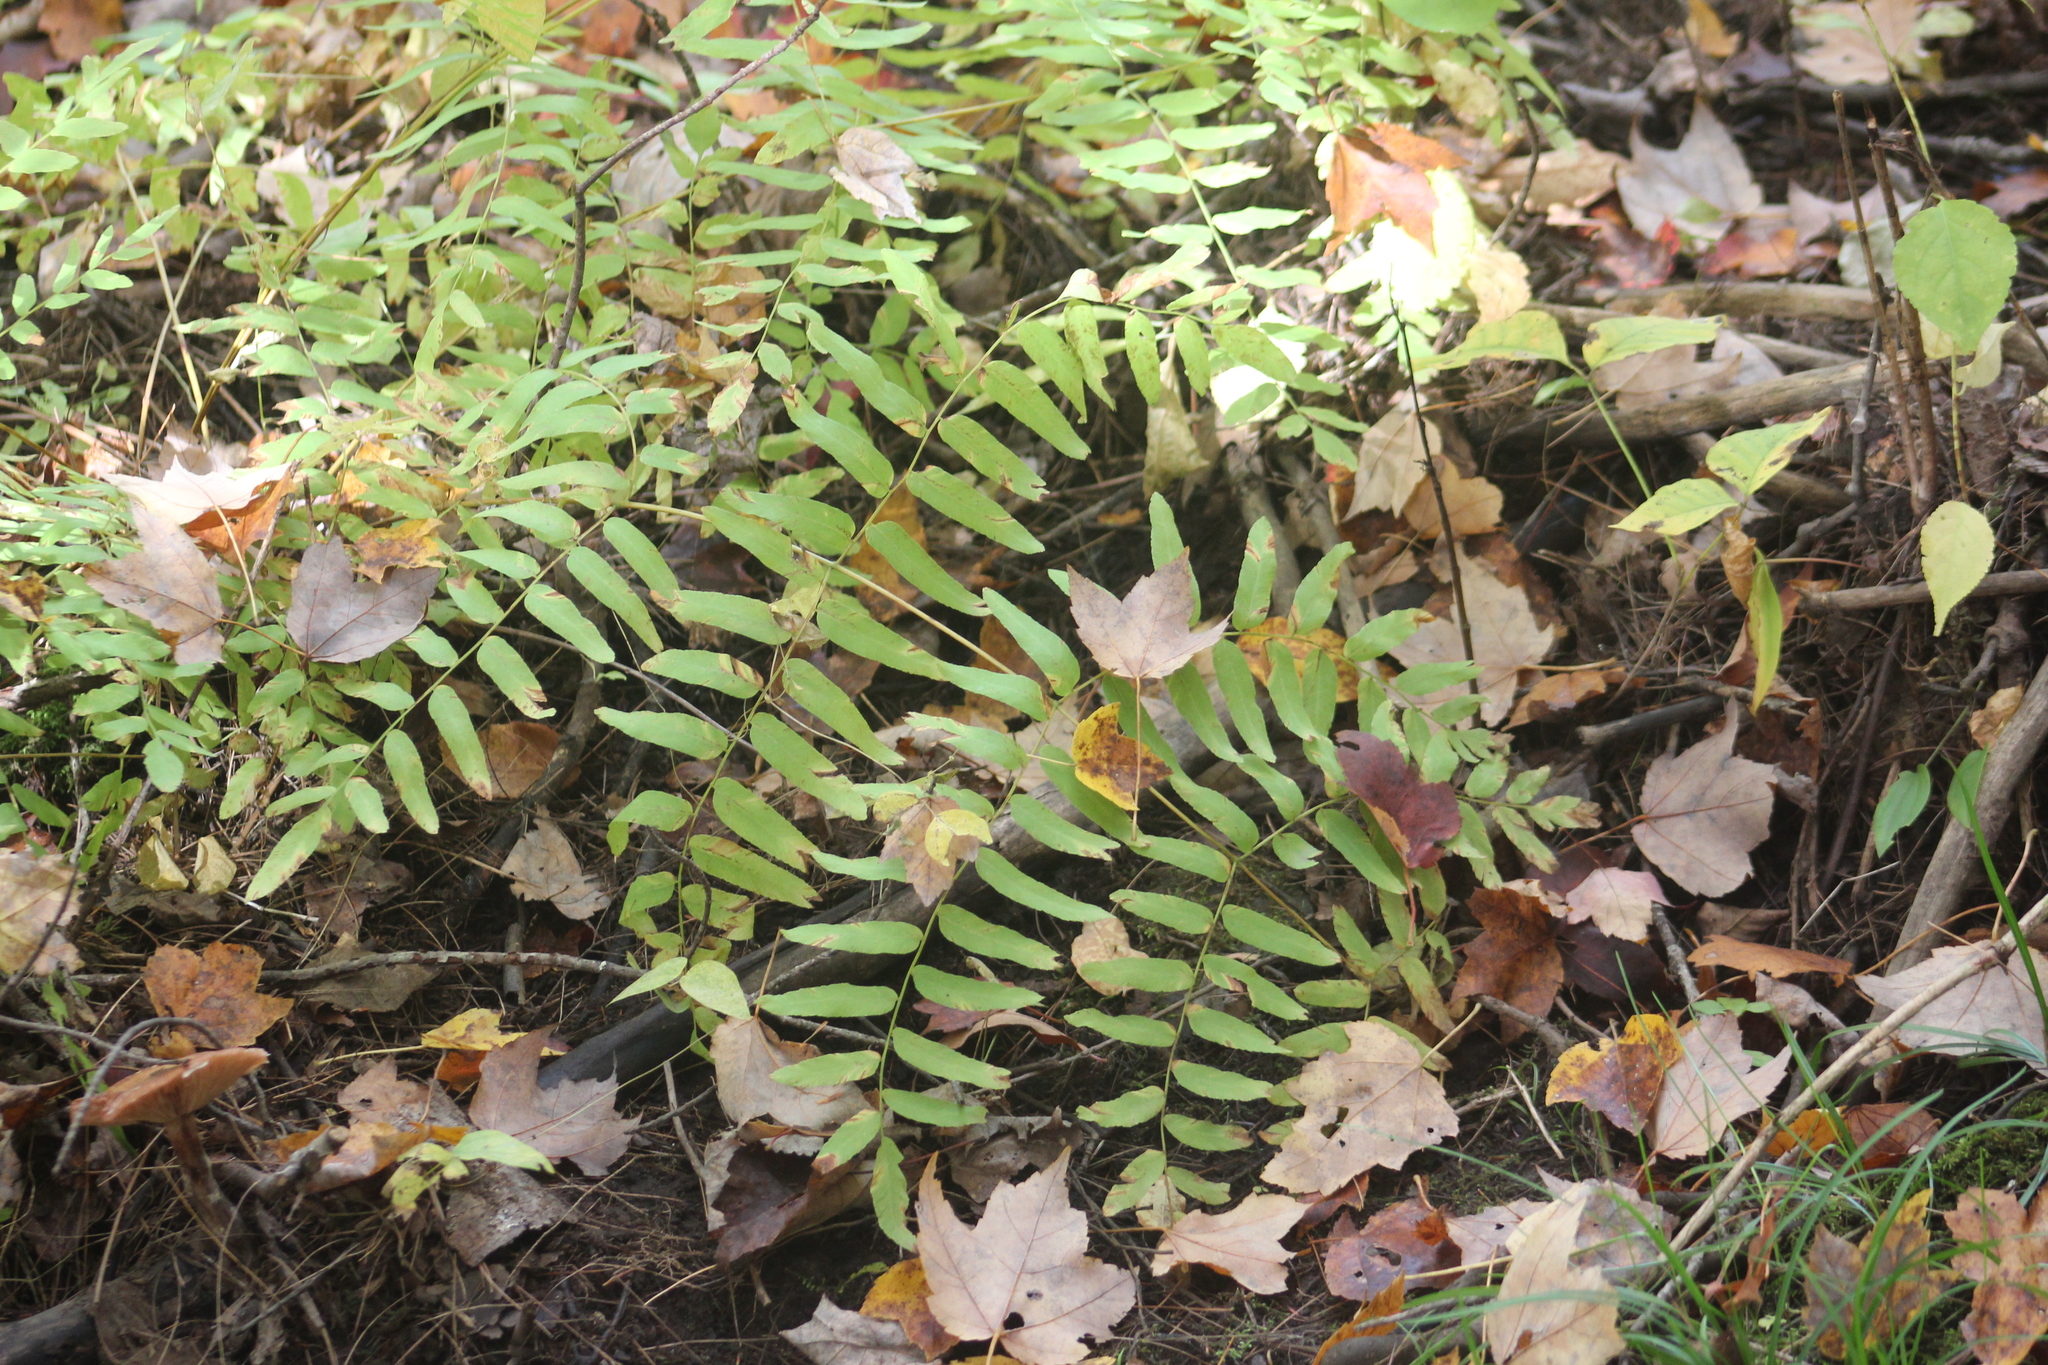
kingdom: Plantae
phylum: Tracheophyta
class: Polypodiopsida
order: Osmundales
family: Osmundaceae
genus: Osmunda
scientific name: Osmunda spectabilis
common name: American royal fern
